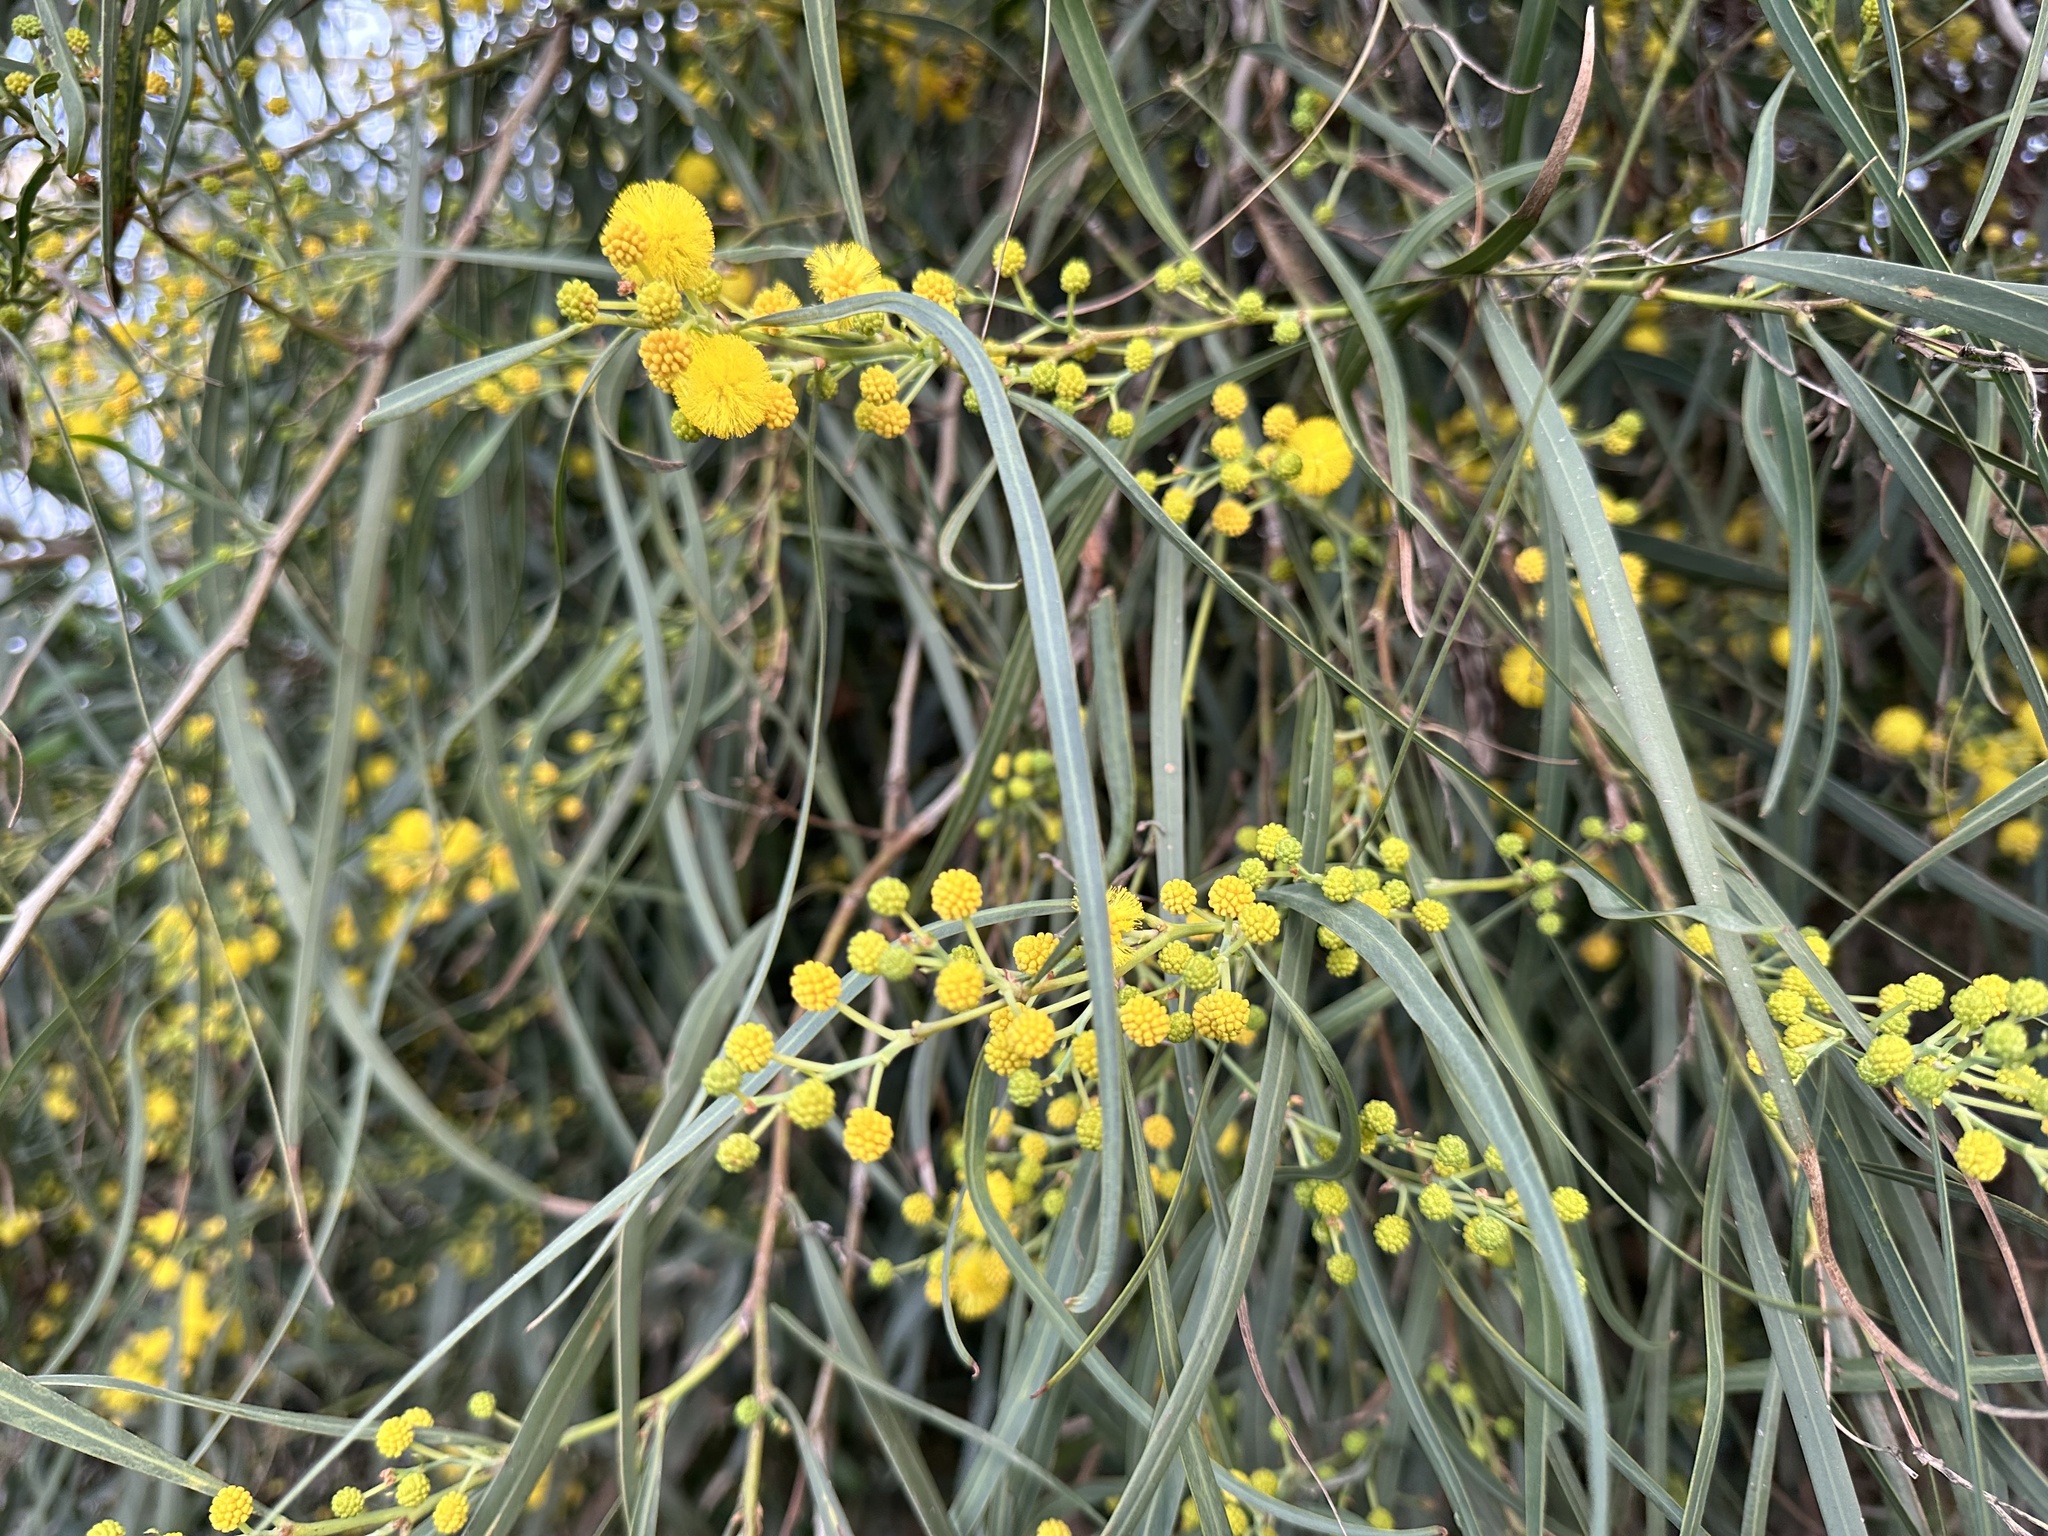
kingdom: Plantae
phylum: Tracheophyta
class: Magnoliopsida
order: Fabales
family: Fabaceae
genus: Acacia
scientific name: Acacia retinodes
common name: Silver wattle
